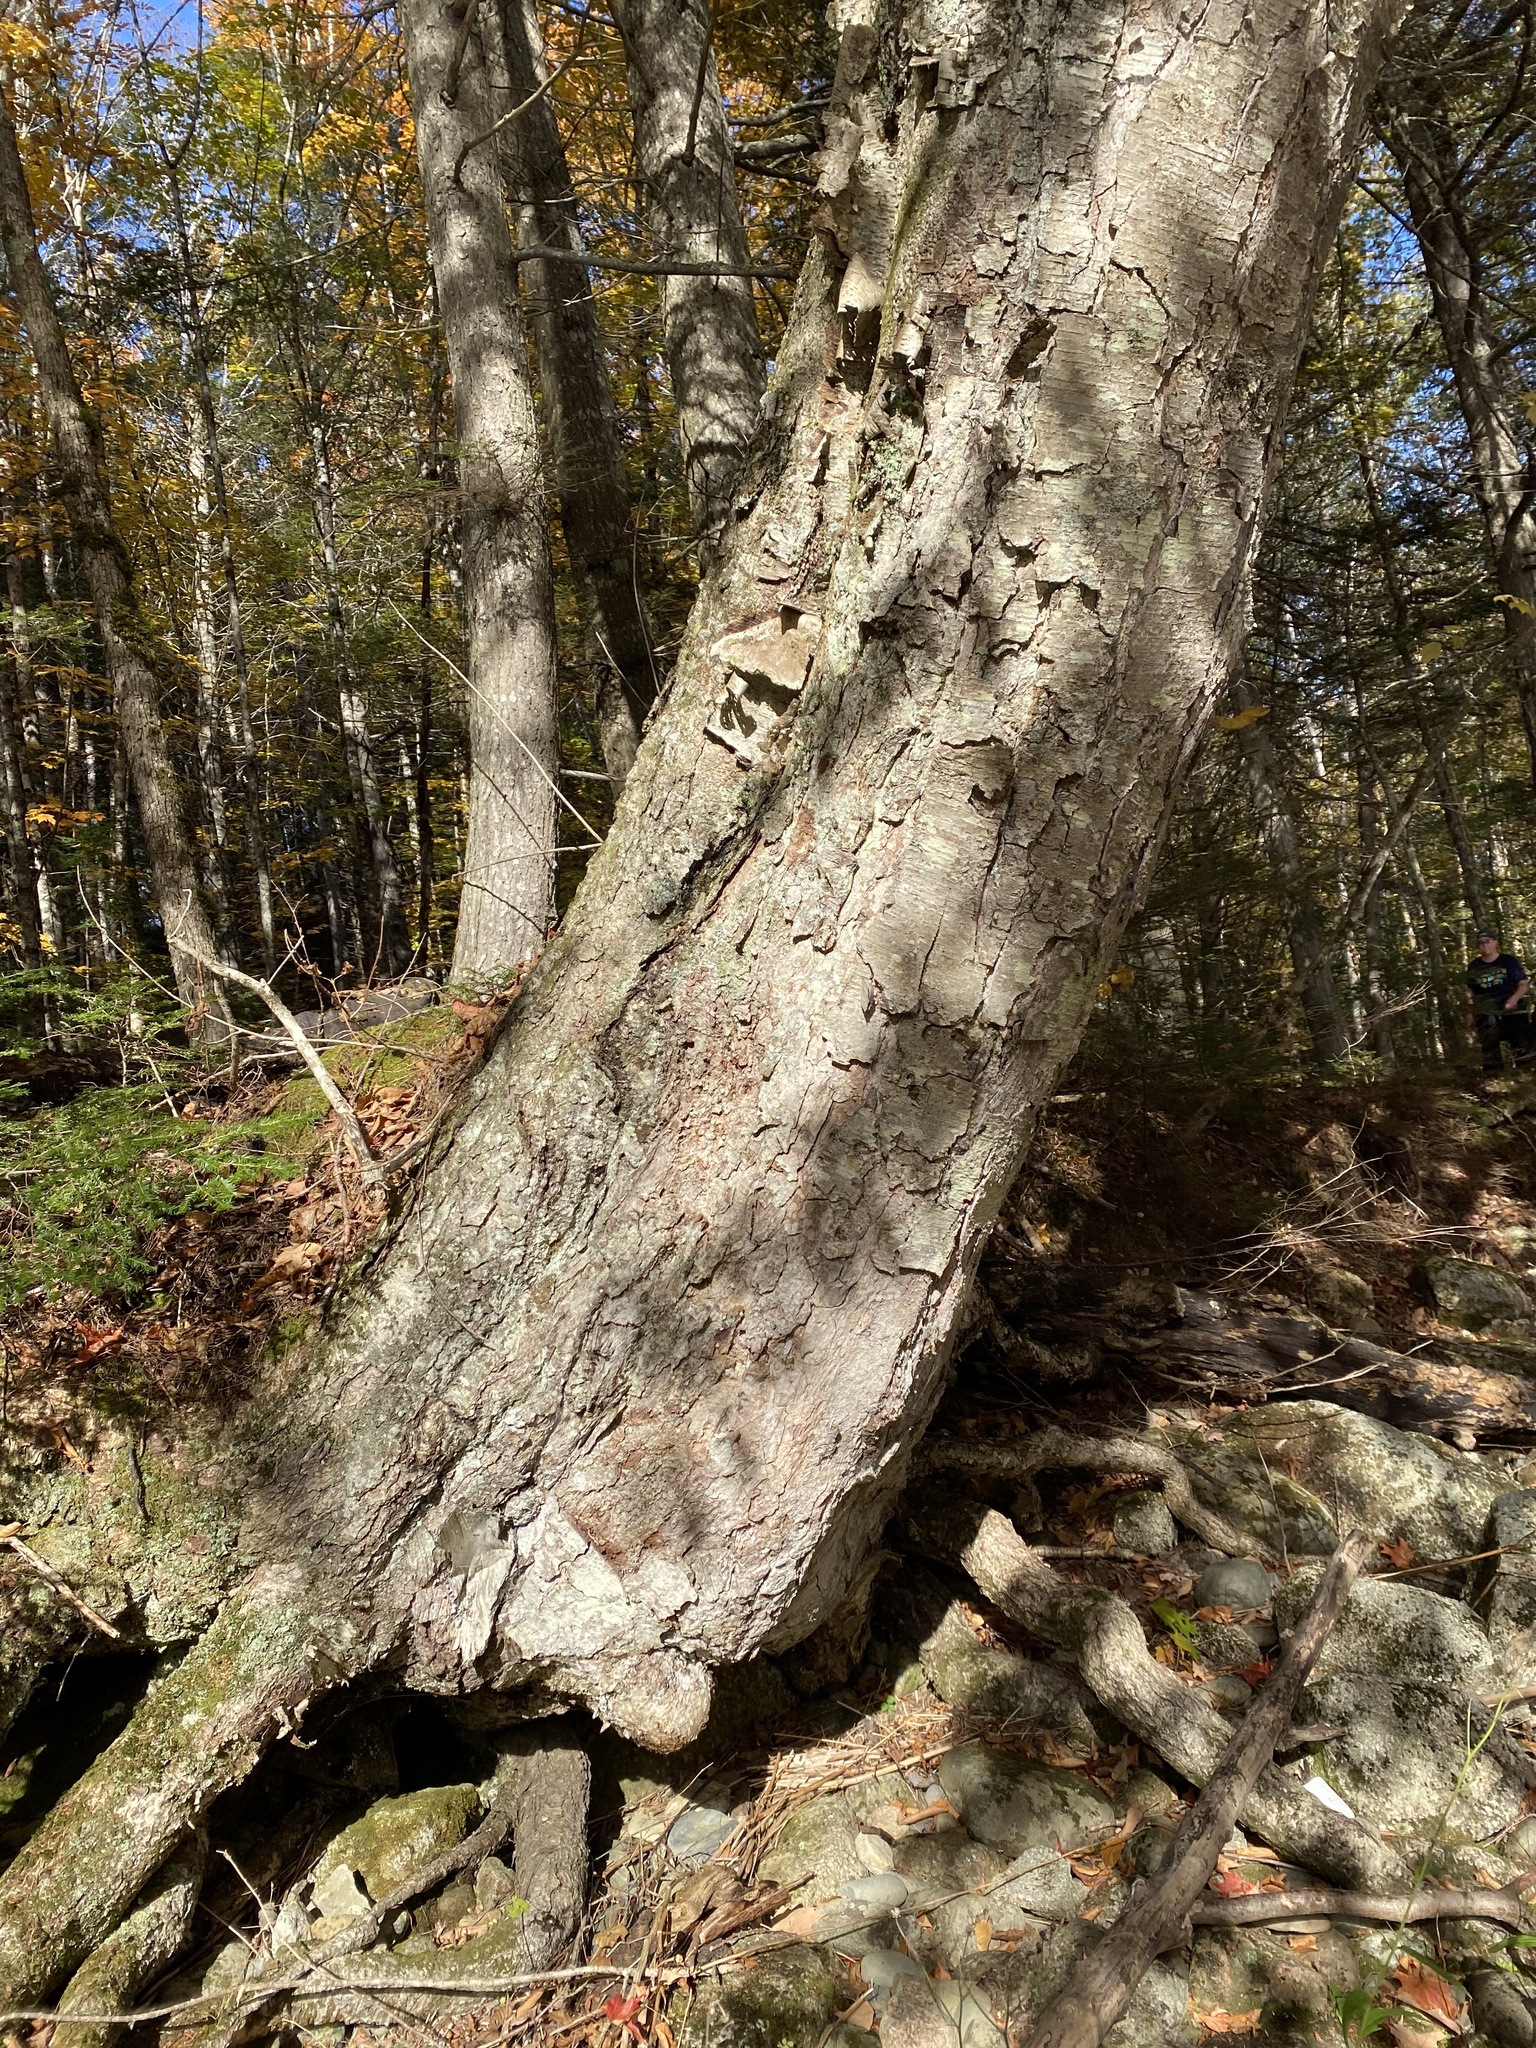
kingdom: Plantae
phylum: Tracheophyta
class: Magnoliopsida
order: Fagales
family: Betulaceae
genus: Betula
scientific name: Betula alleghaniensis
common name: Yellow birch
